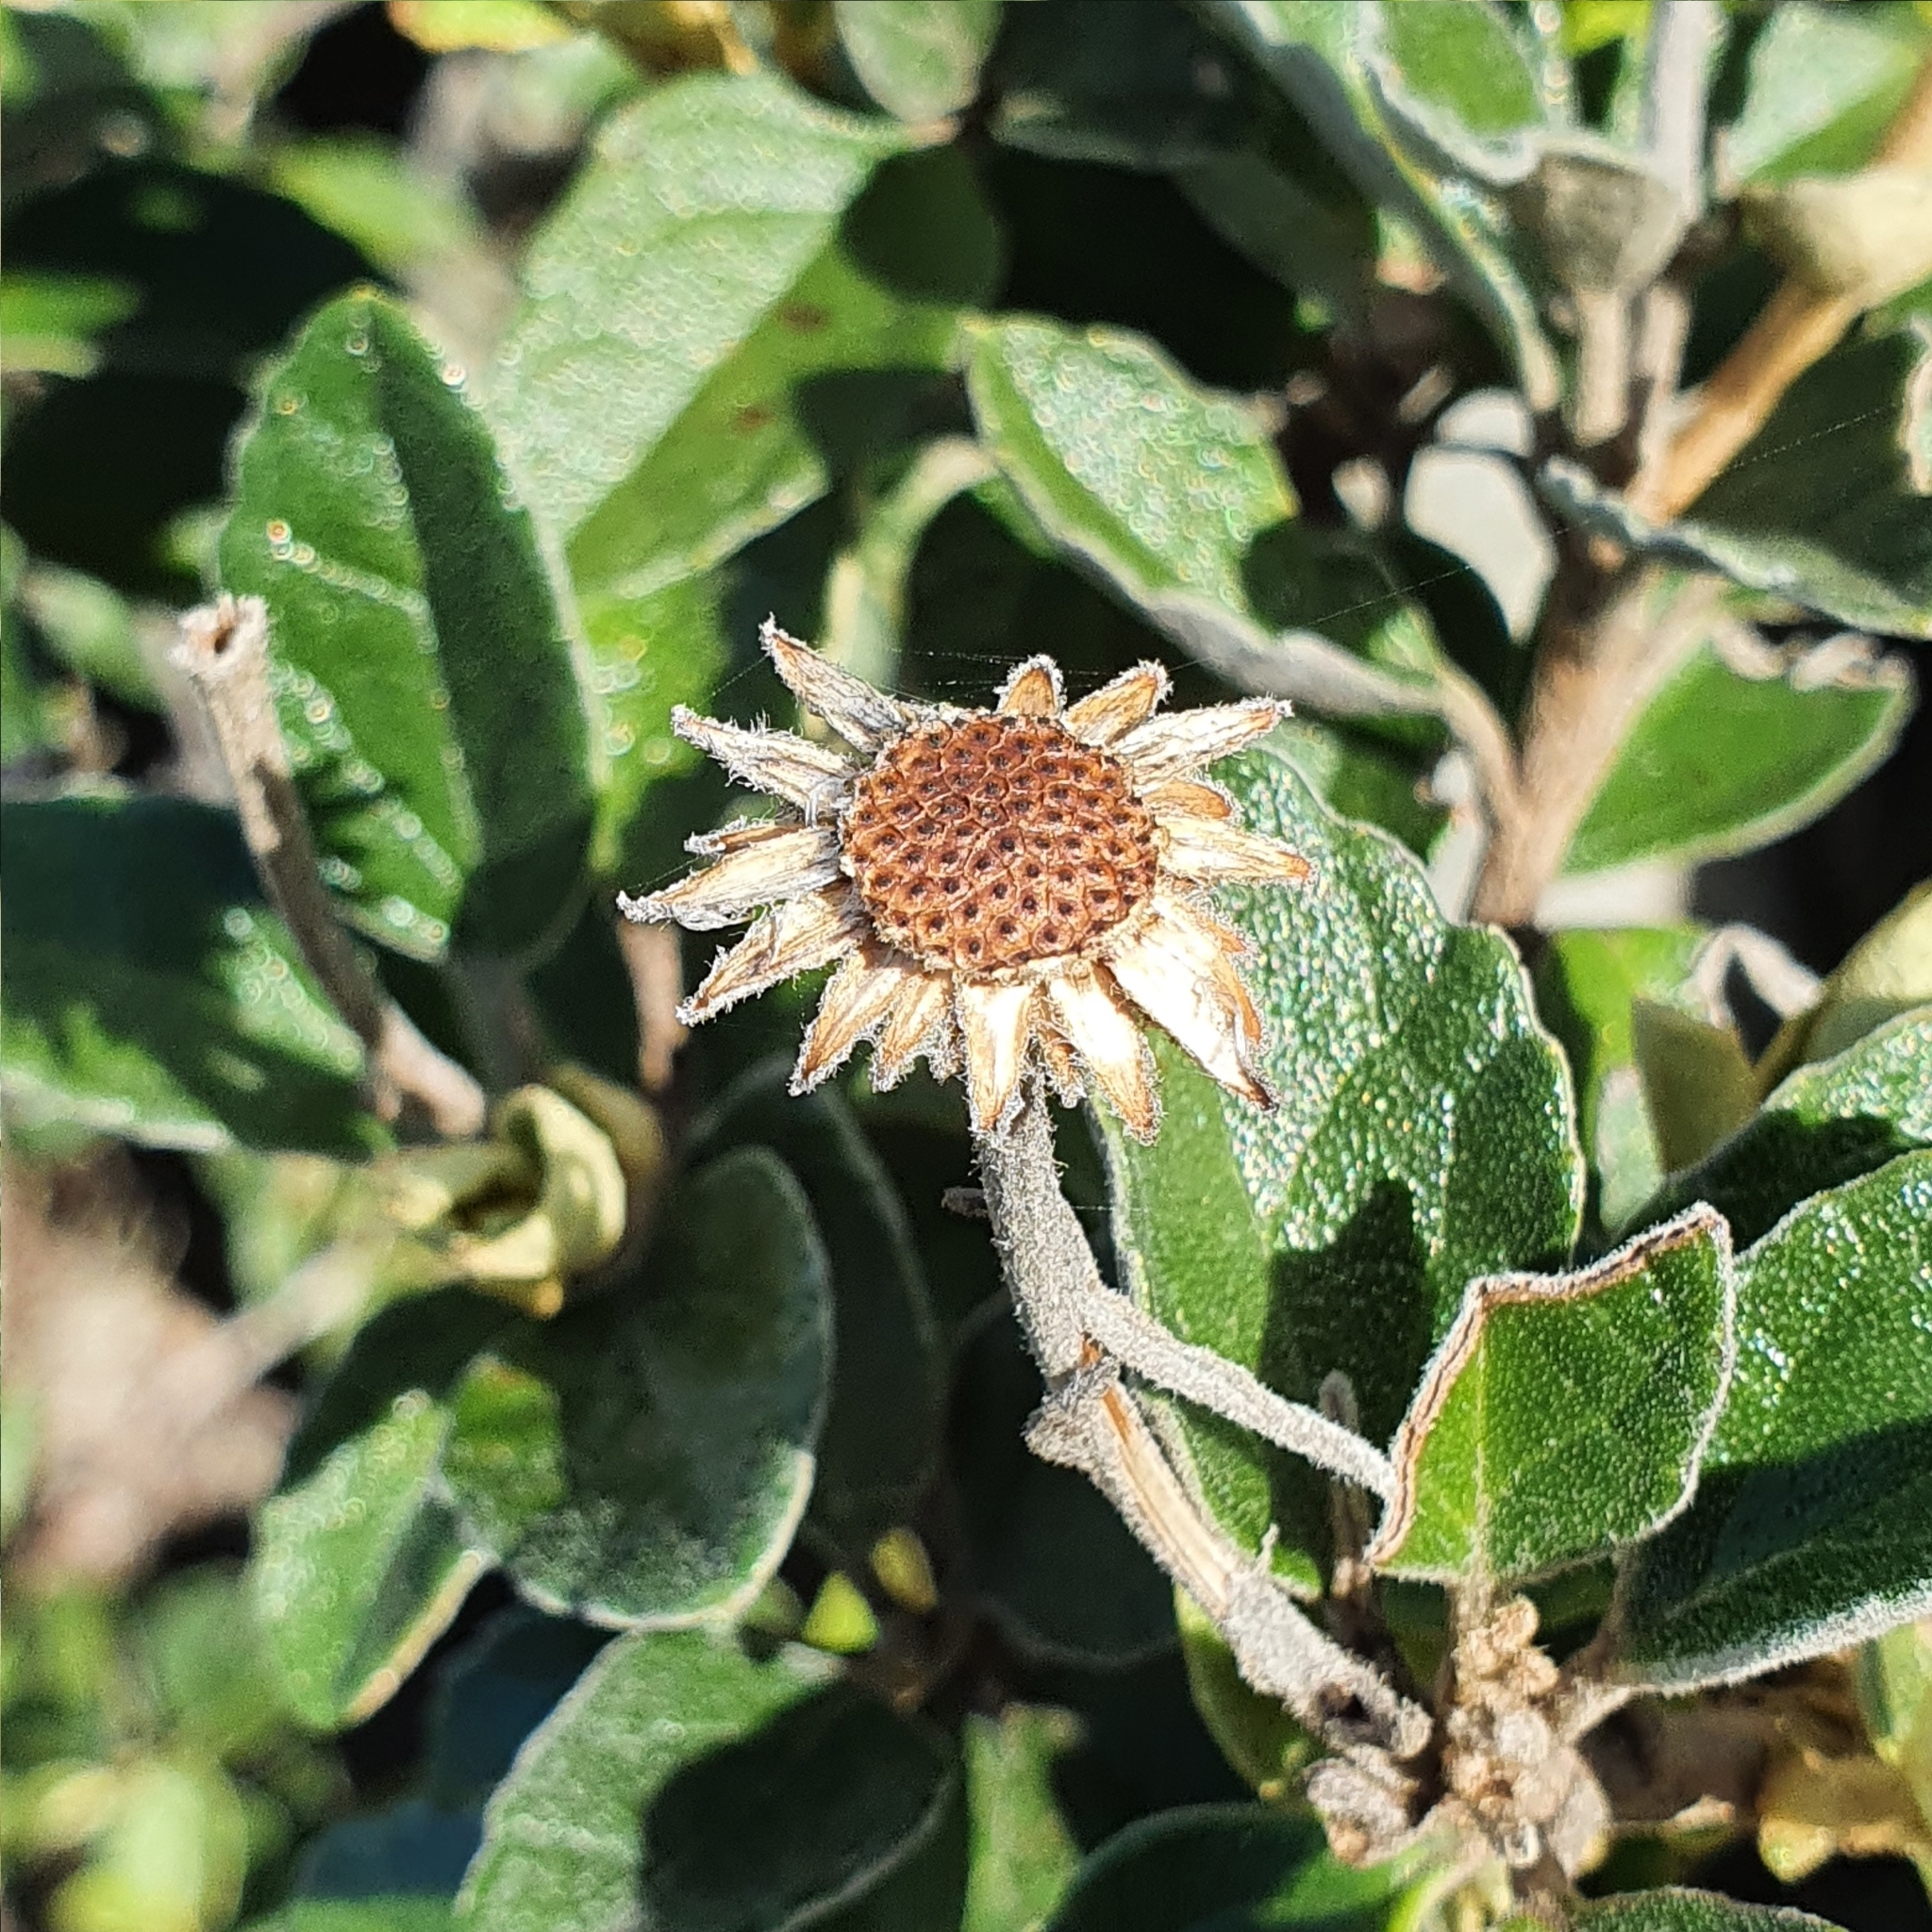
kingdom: Plantae
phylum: Tracheophyta
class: Magnoliopsida
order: Asterales
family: Asteraceae
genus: Olearia
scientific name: Olearia tomentosa
